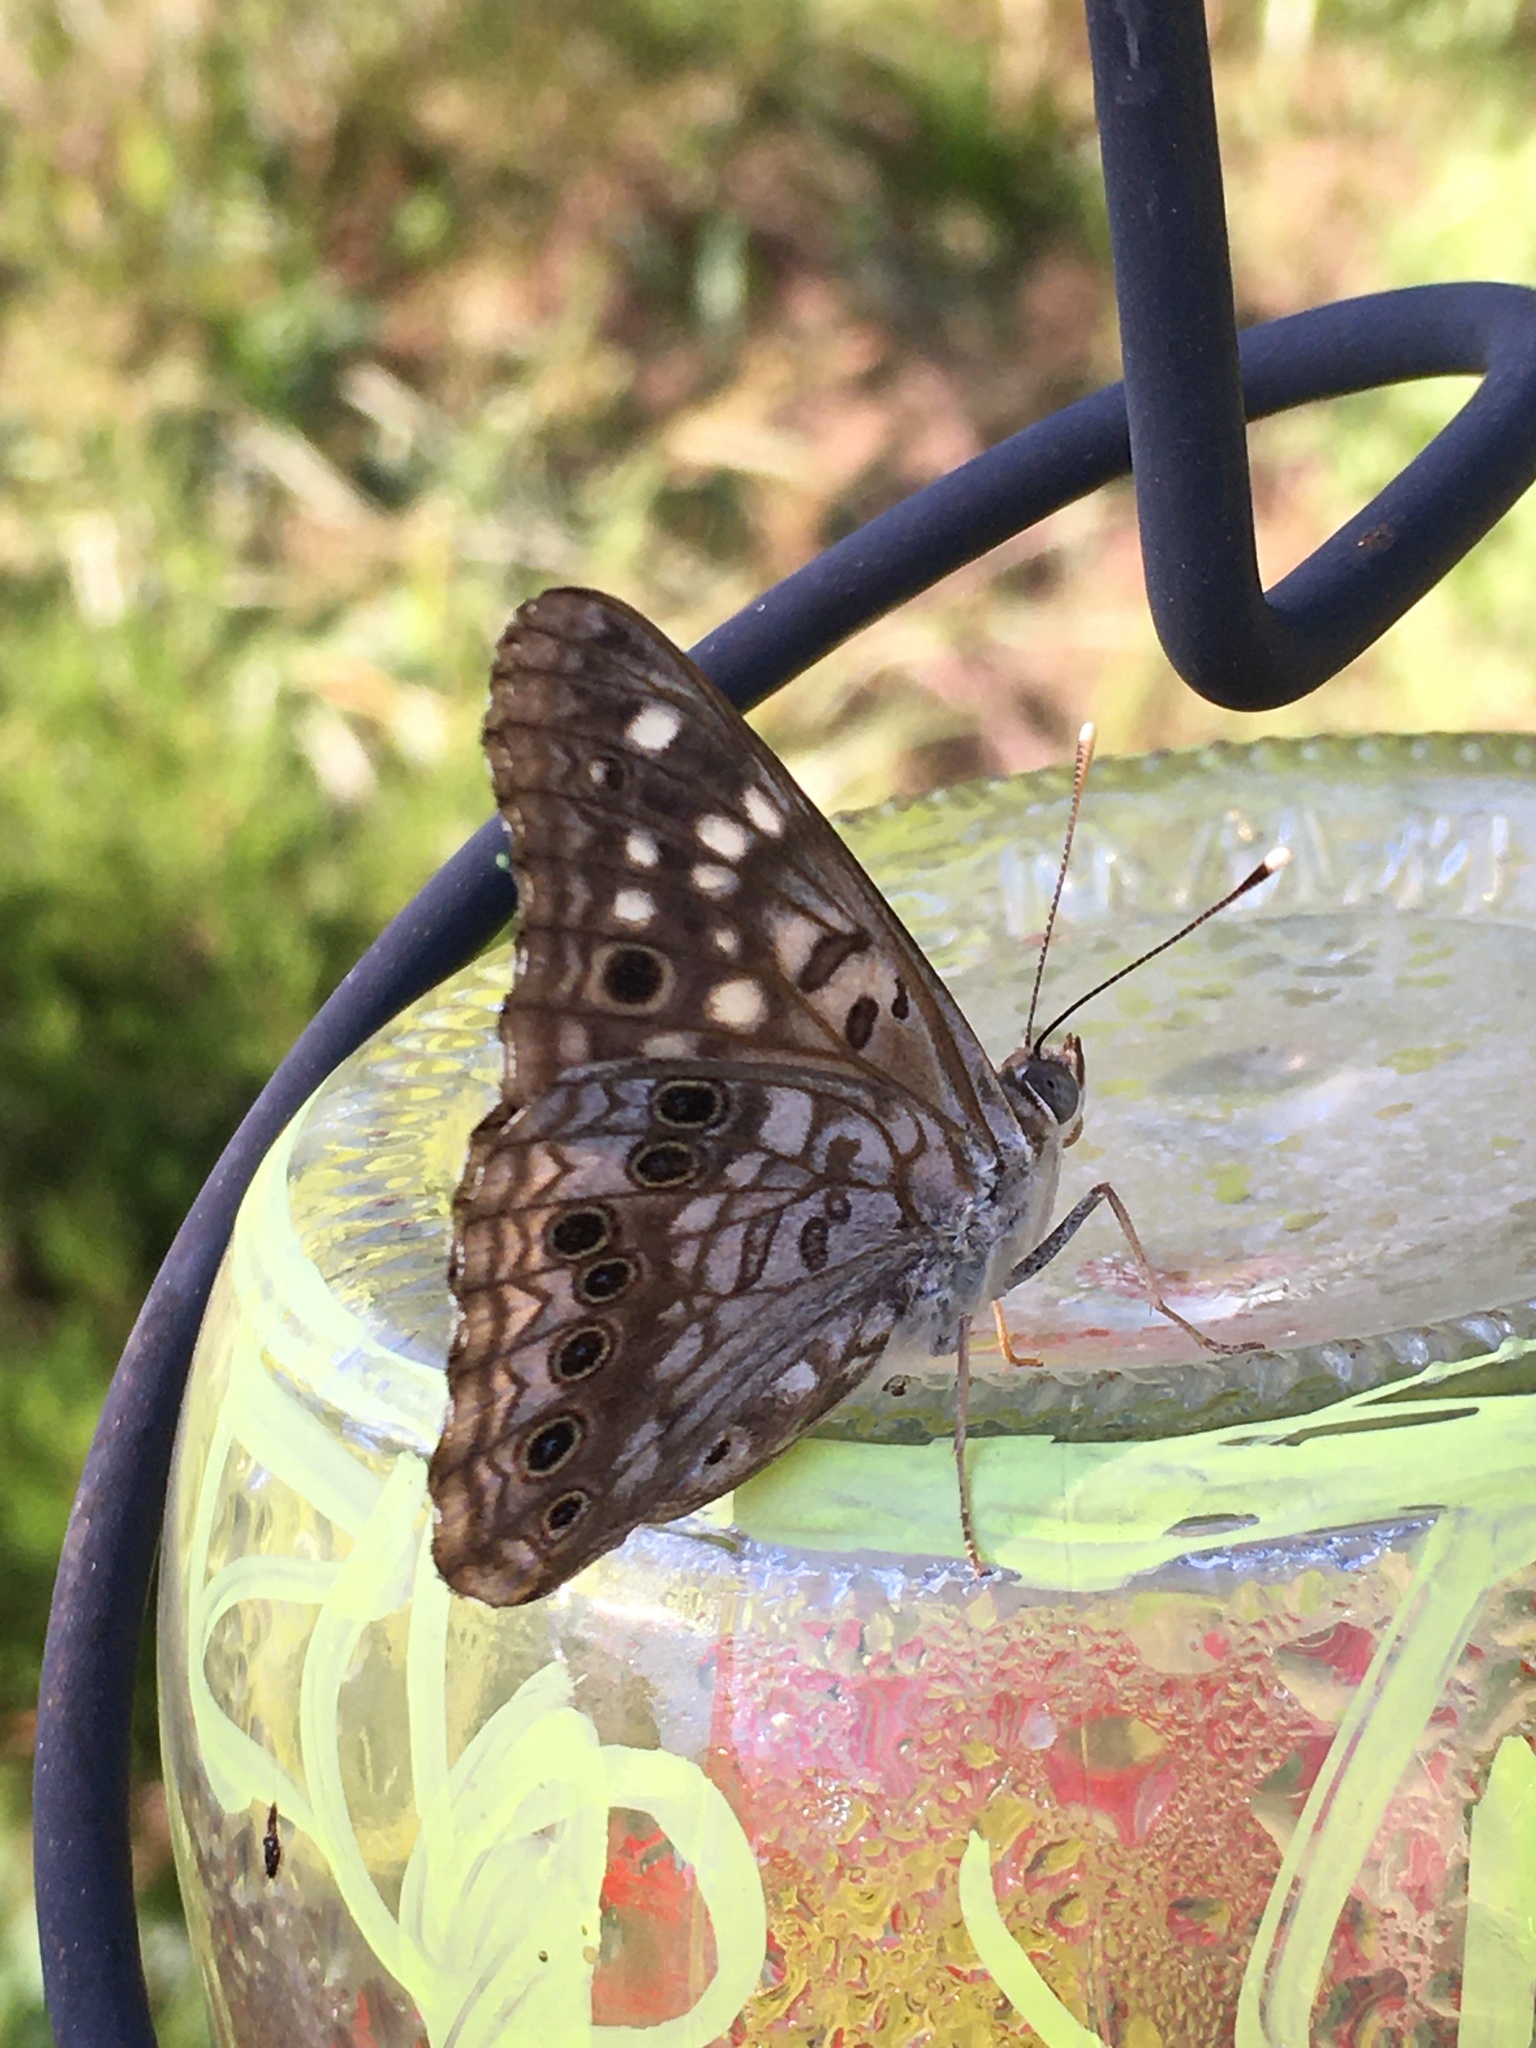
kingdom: Animalia
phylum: Arthropoda
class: Insecta
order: Lepidoptera
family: Nymphalidae
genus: Asterocampa
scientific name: Asterocampa celtis
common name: Hackberry emperor
